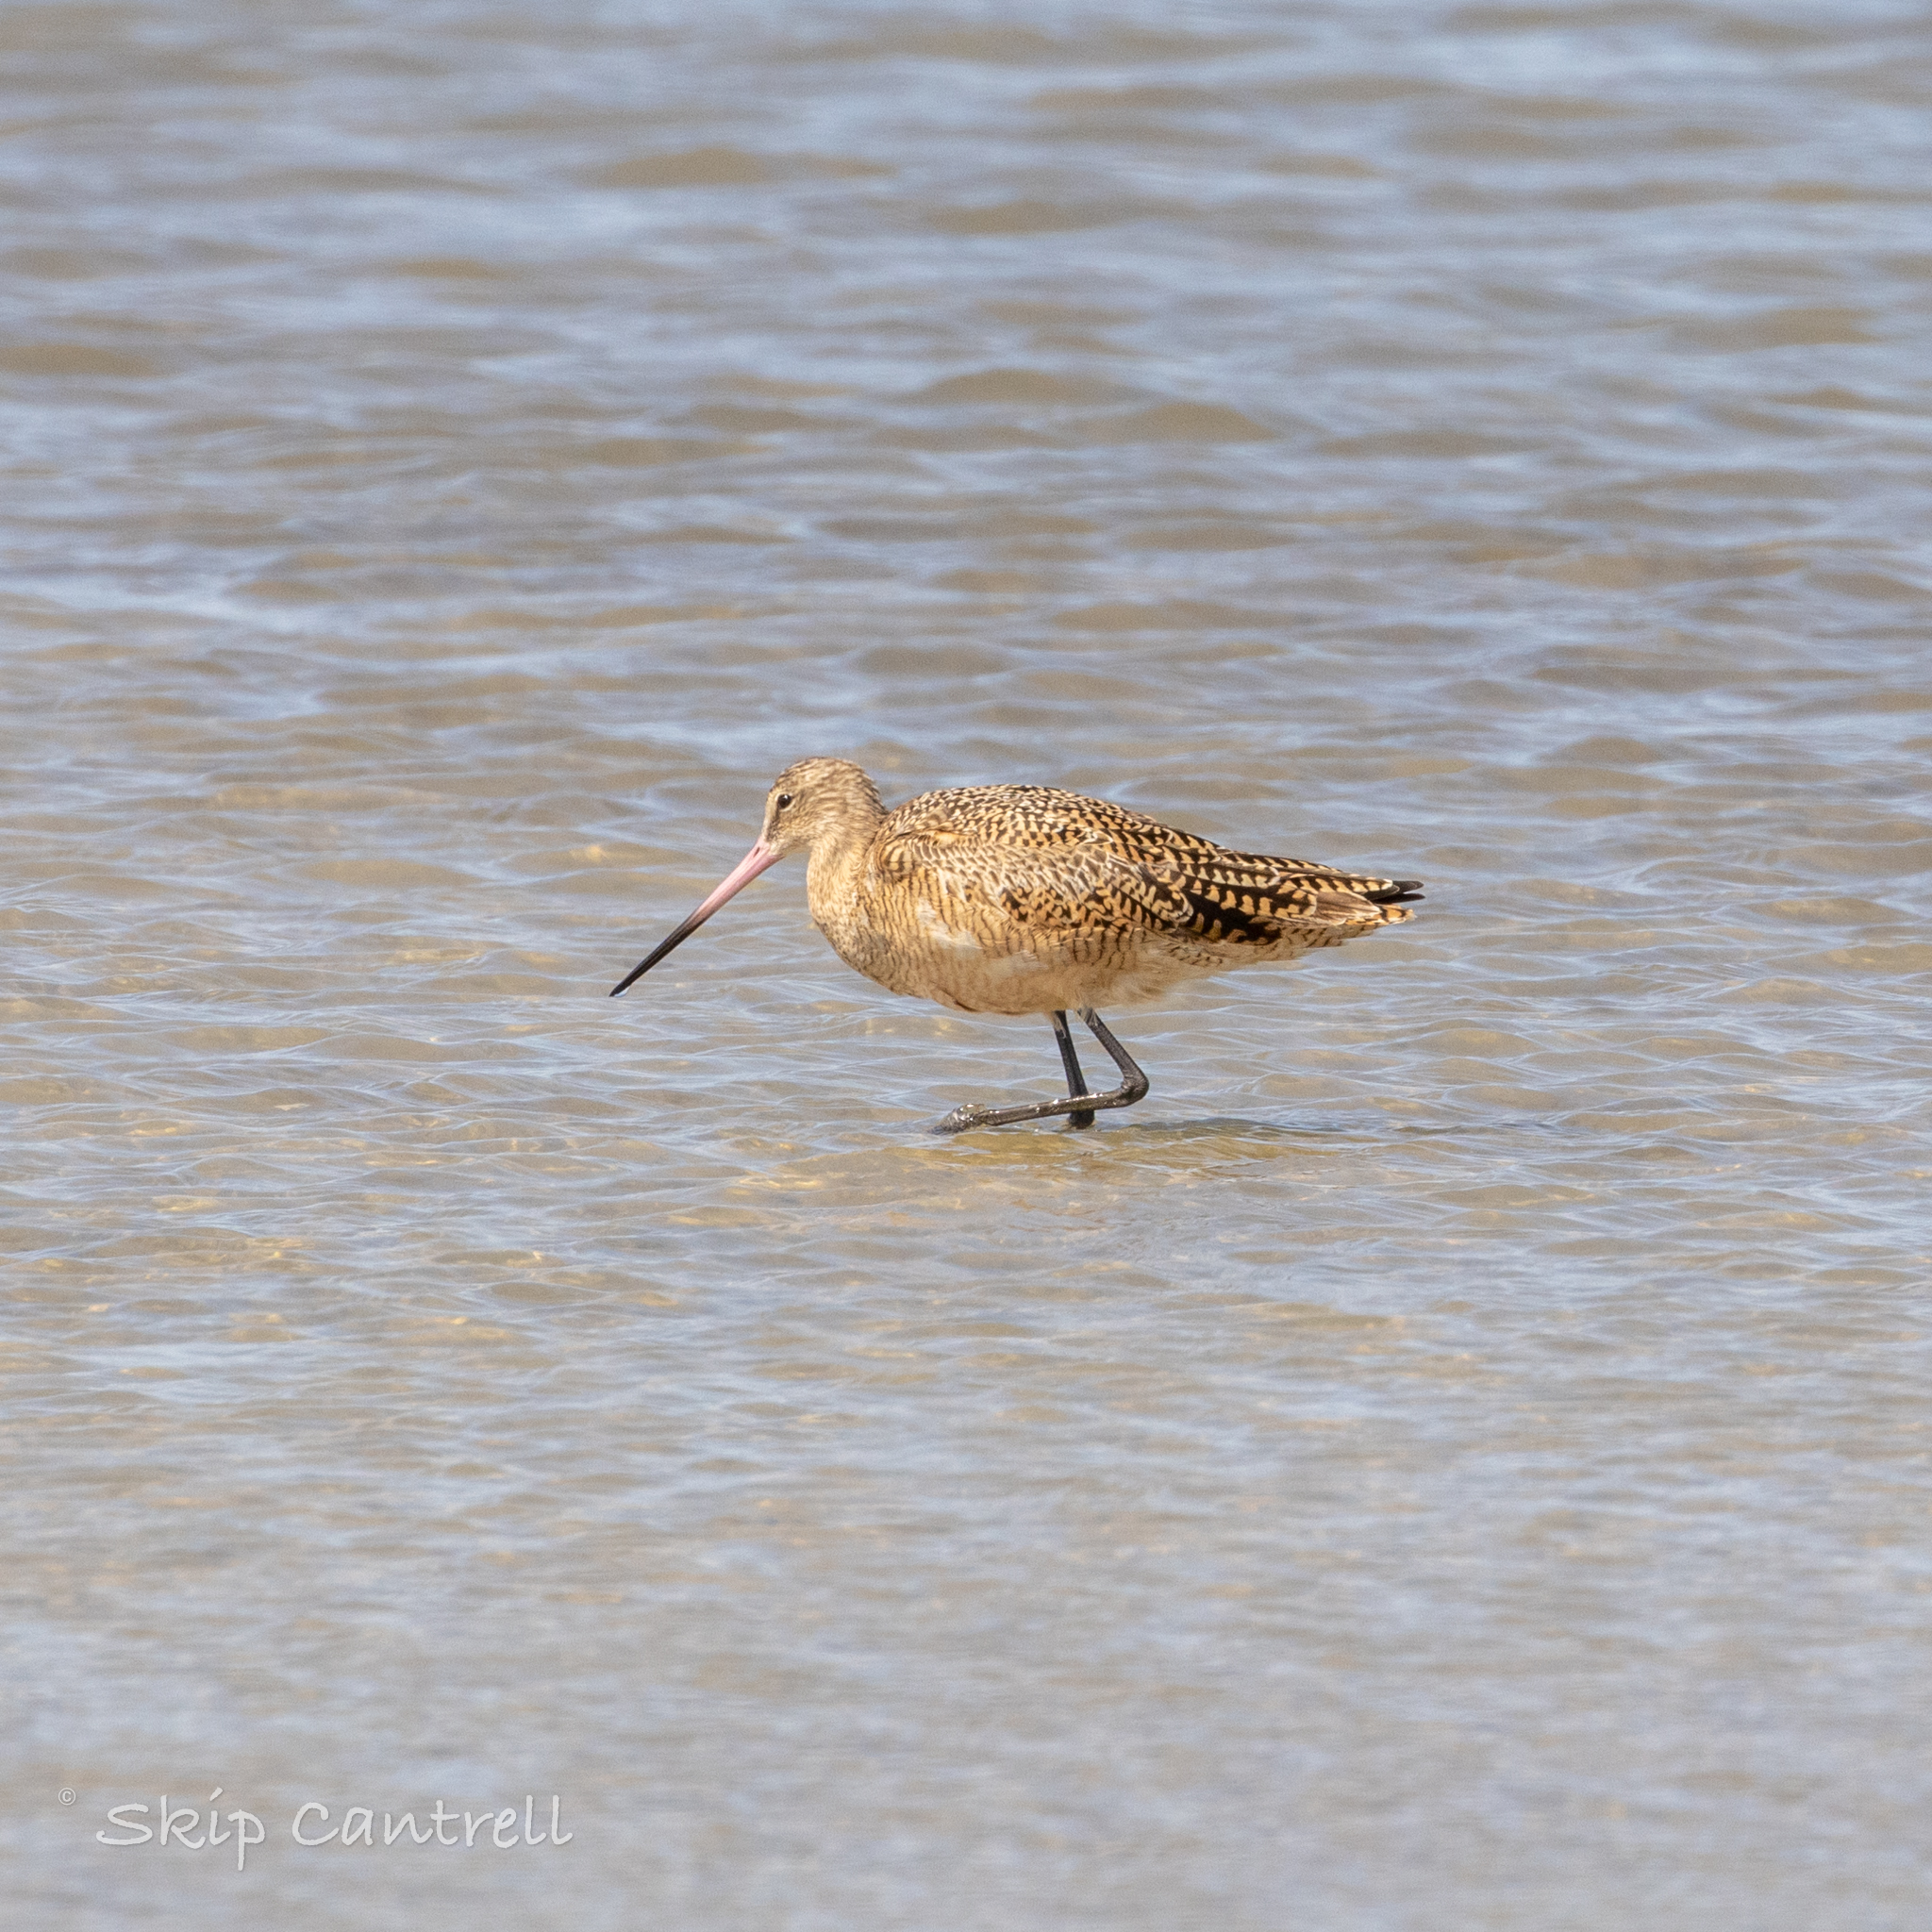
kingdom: Animalia
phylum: Chordata
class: Aves
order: Charadriiformes
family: Scolopacidae
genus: Limosa
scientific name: Limosa fedoa
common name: Marbled godwit
